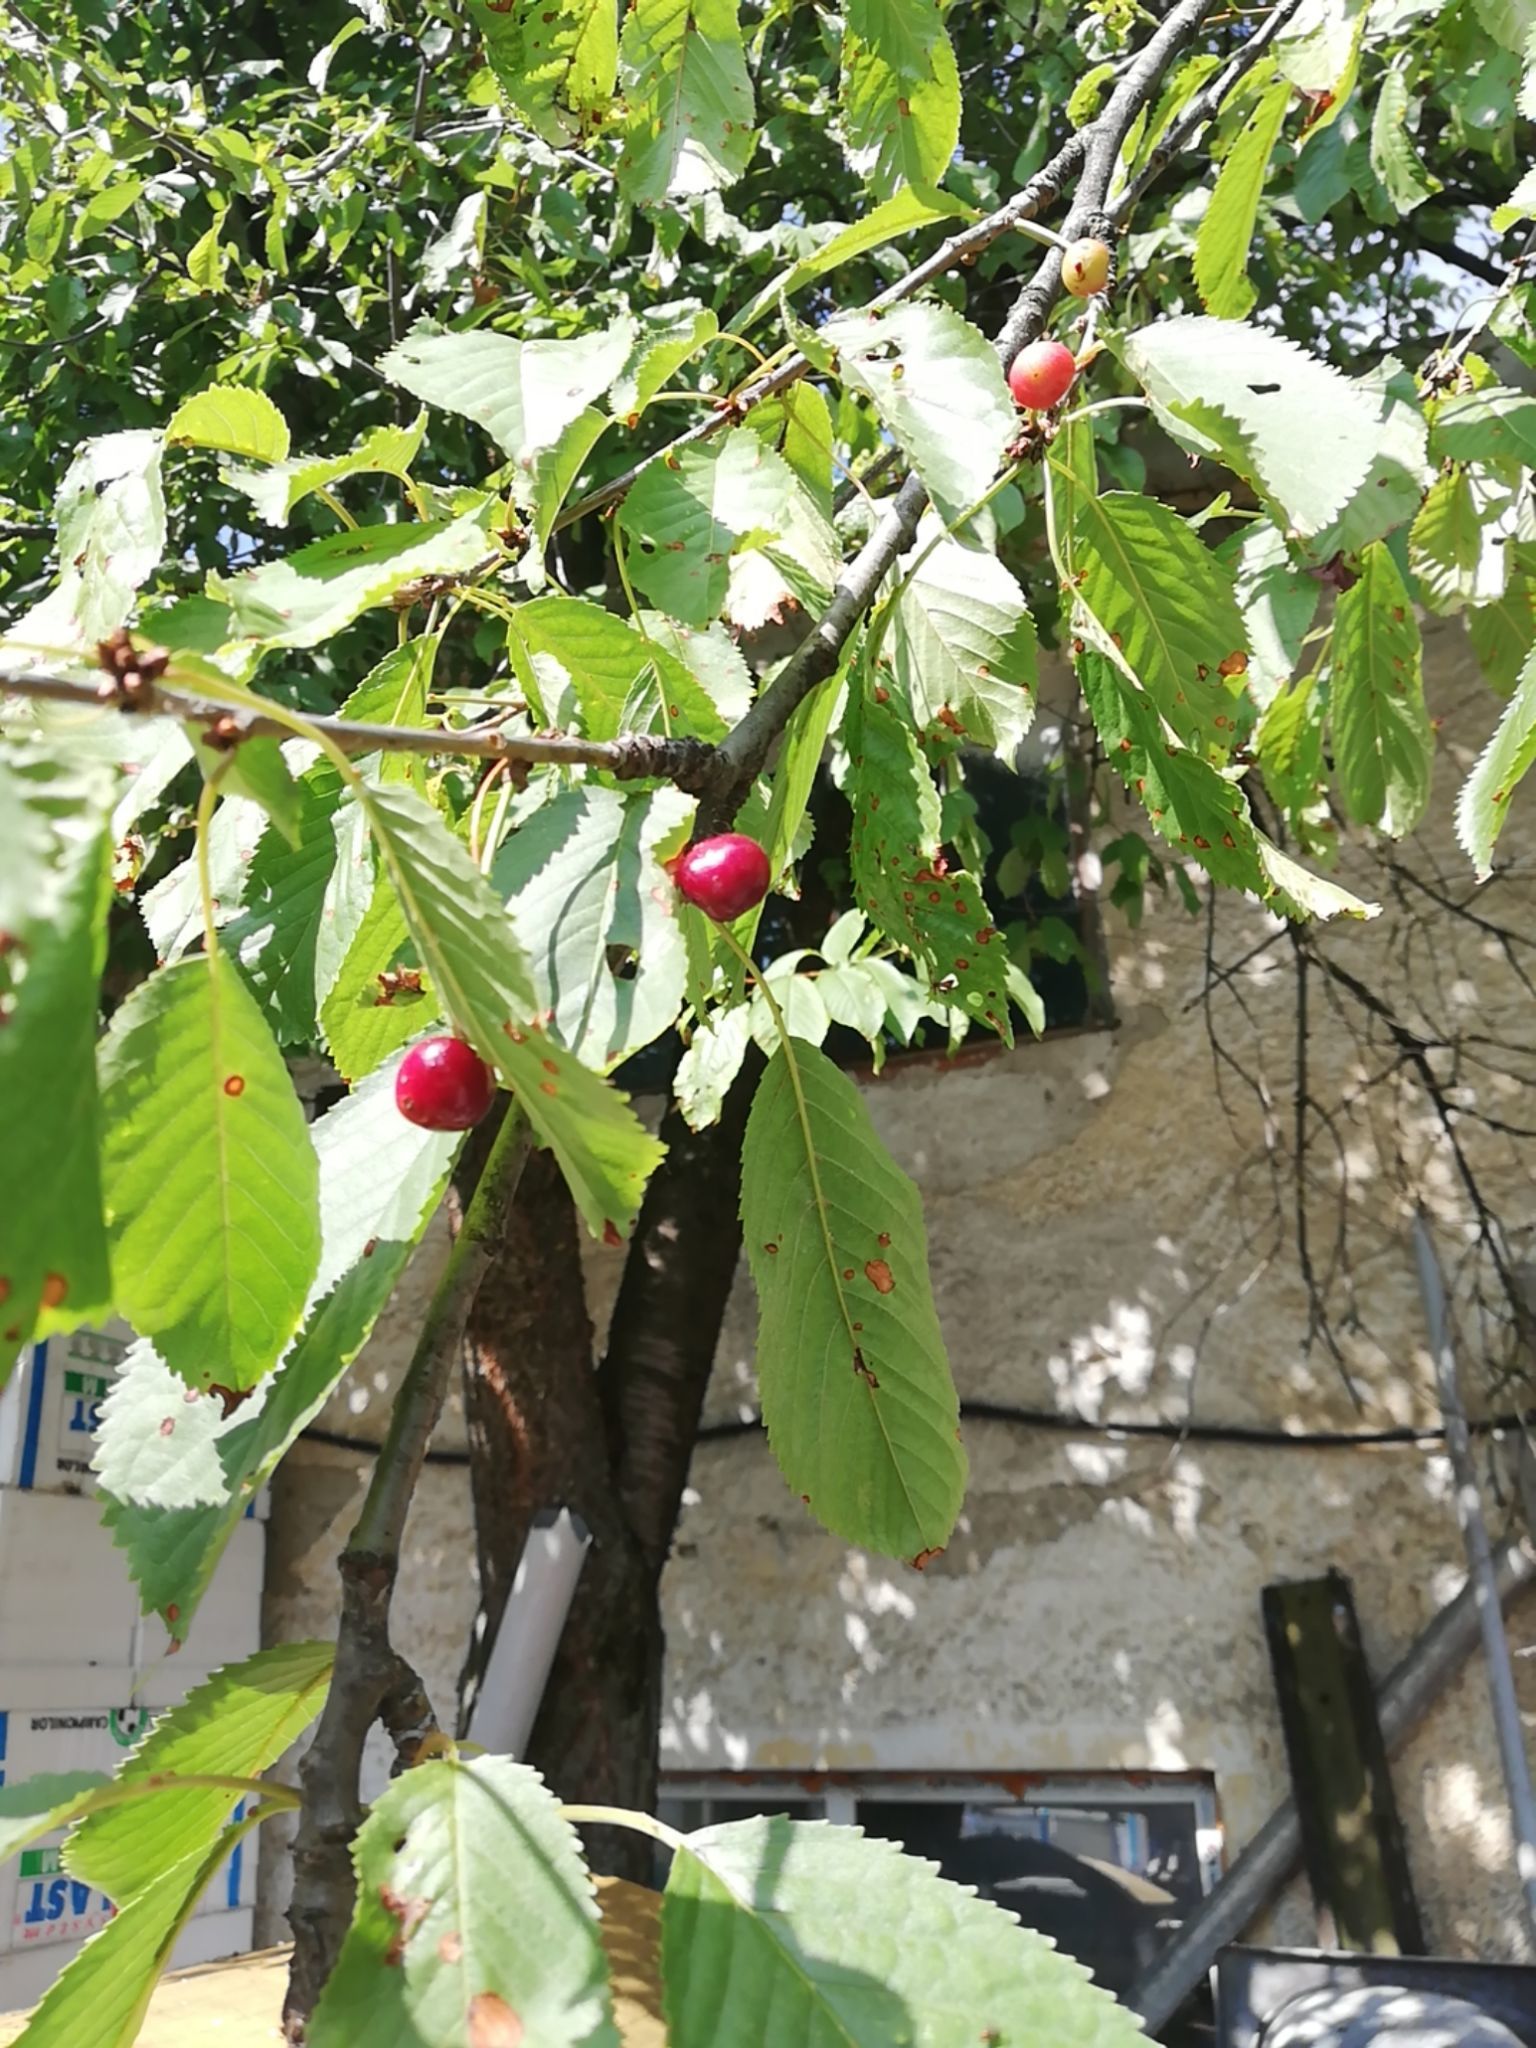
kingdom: Plantae
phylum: Tracheophyta
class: Magnoliopsida
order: Rosales
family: Rosaceae
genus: Prunus
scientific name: Prunus avium
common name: Sweet cherry
